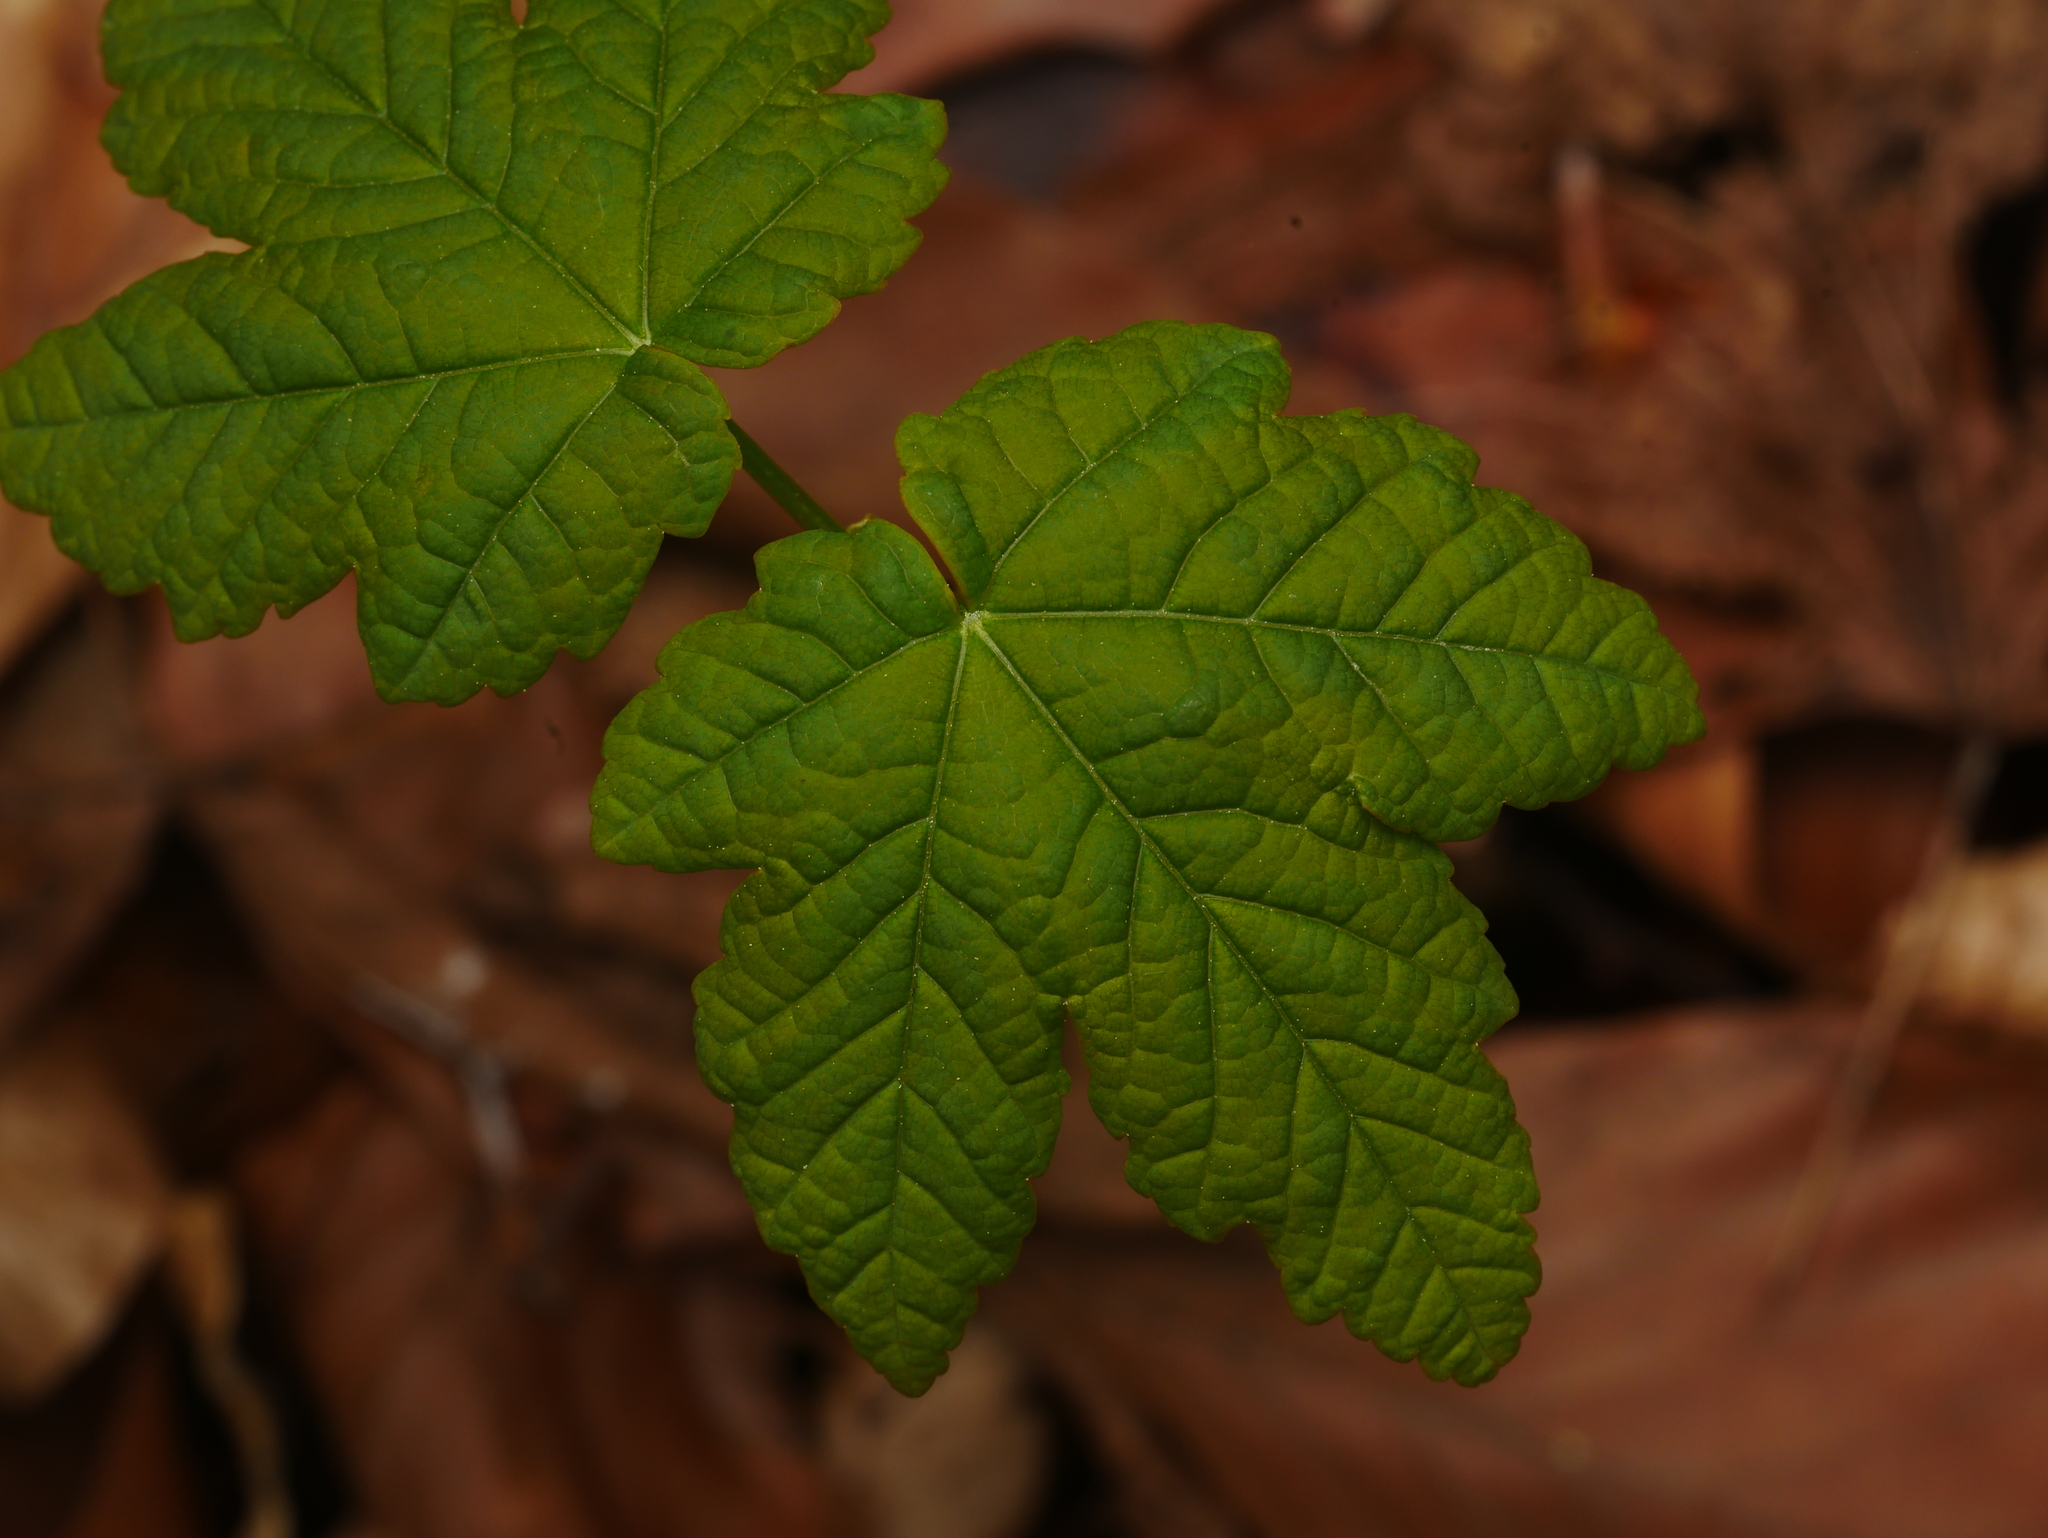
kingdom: Plantae
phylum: Tracheophyta
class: Magnoliopsida
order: Sapindales
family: Sapindaceae
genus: Acer
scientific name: Acer pseudoplatanus
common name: Sycamore
